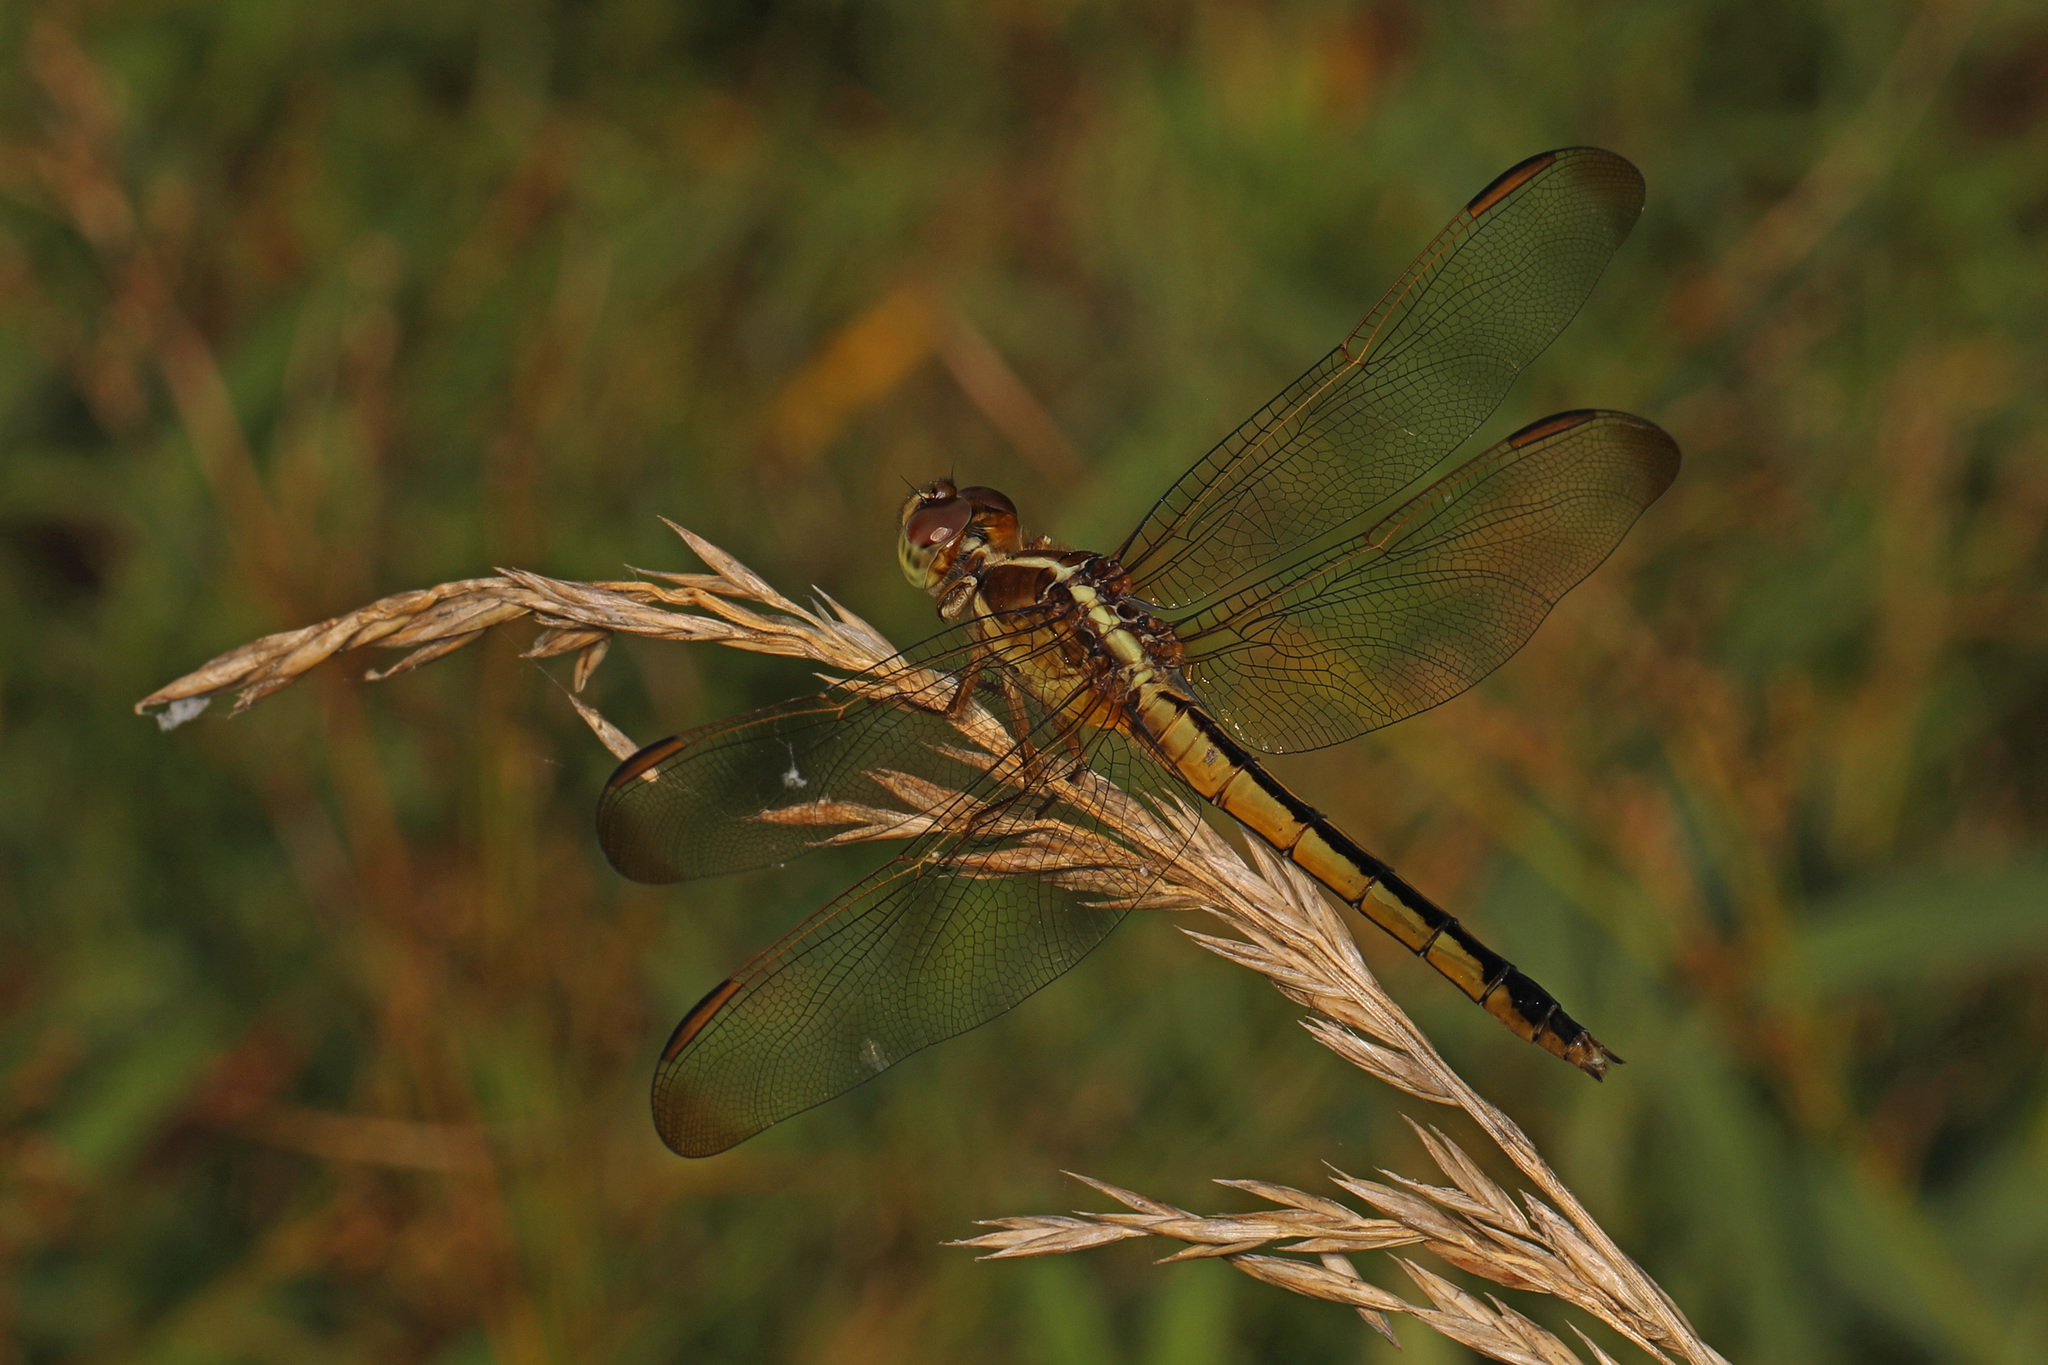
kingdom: Animalia
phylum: Arthropoda
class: Insecta
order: Odonata
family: Libellulidae
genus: Libellula
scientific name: Libellula needhami
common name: Needham's skimmer
